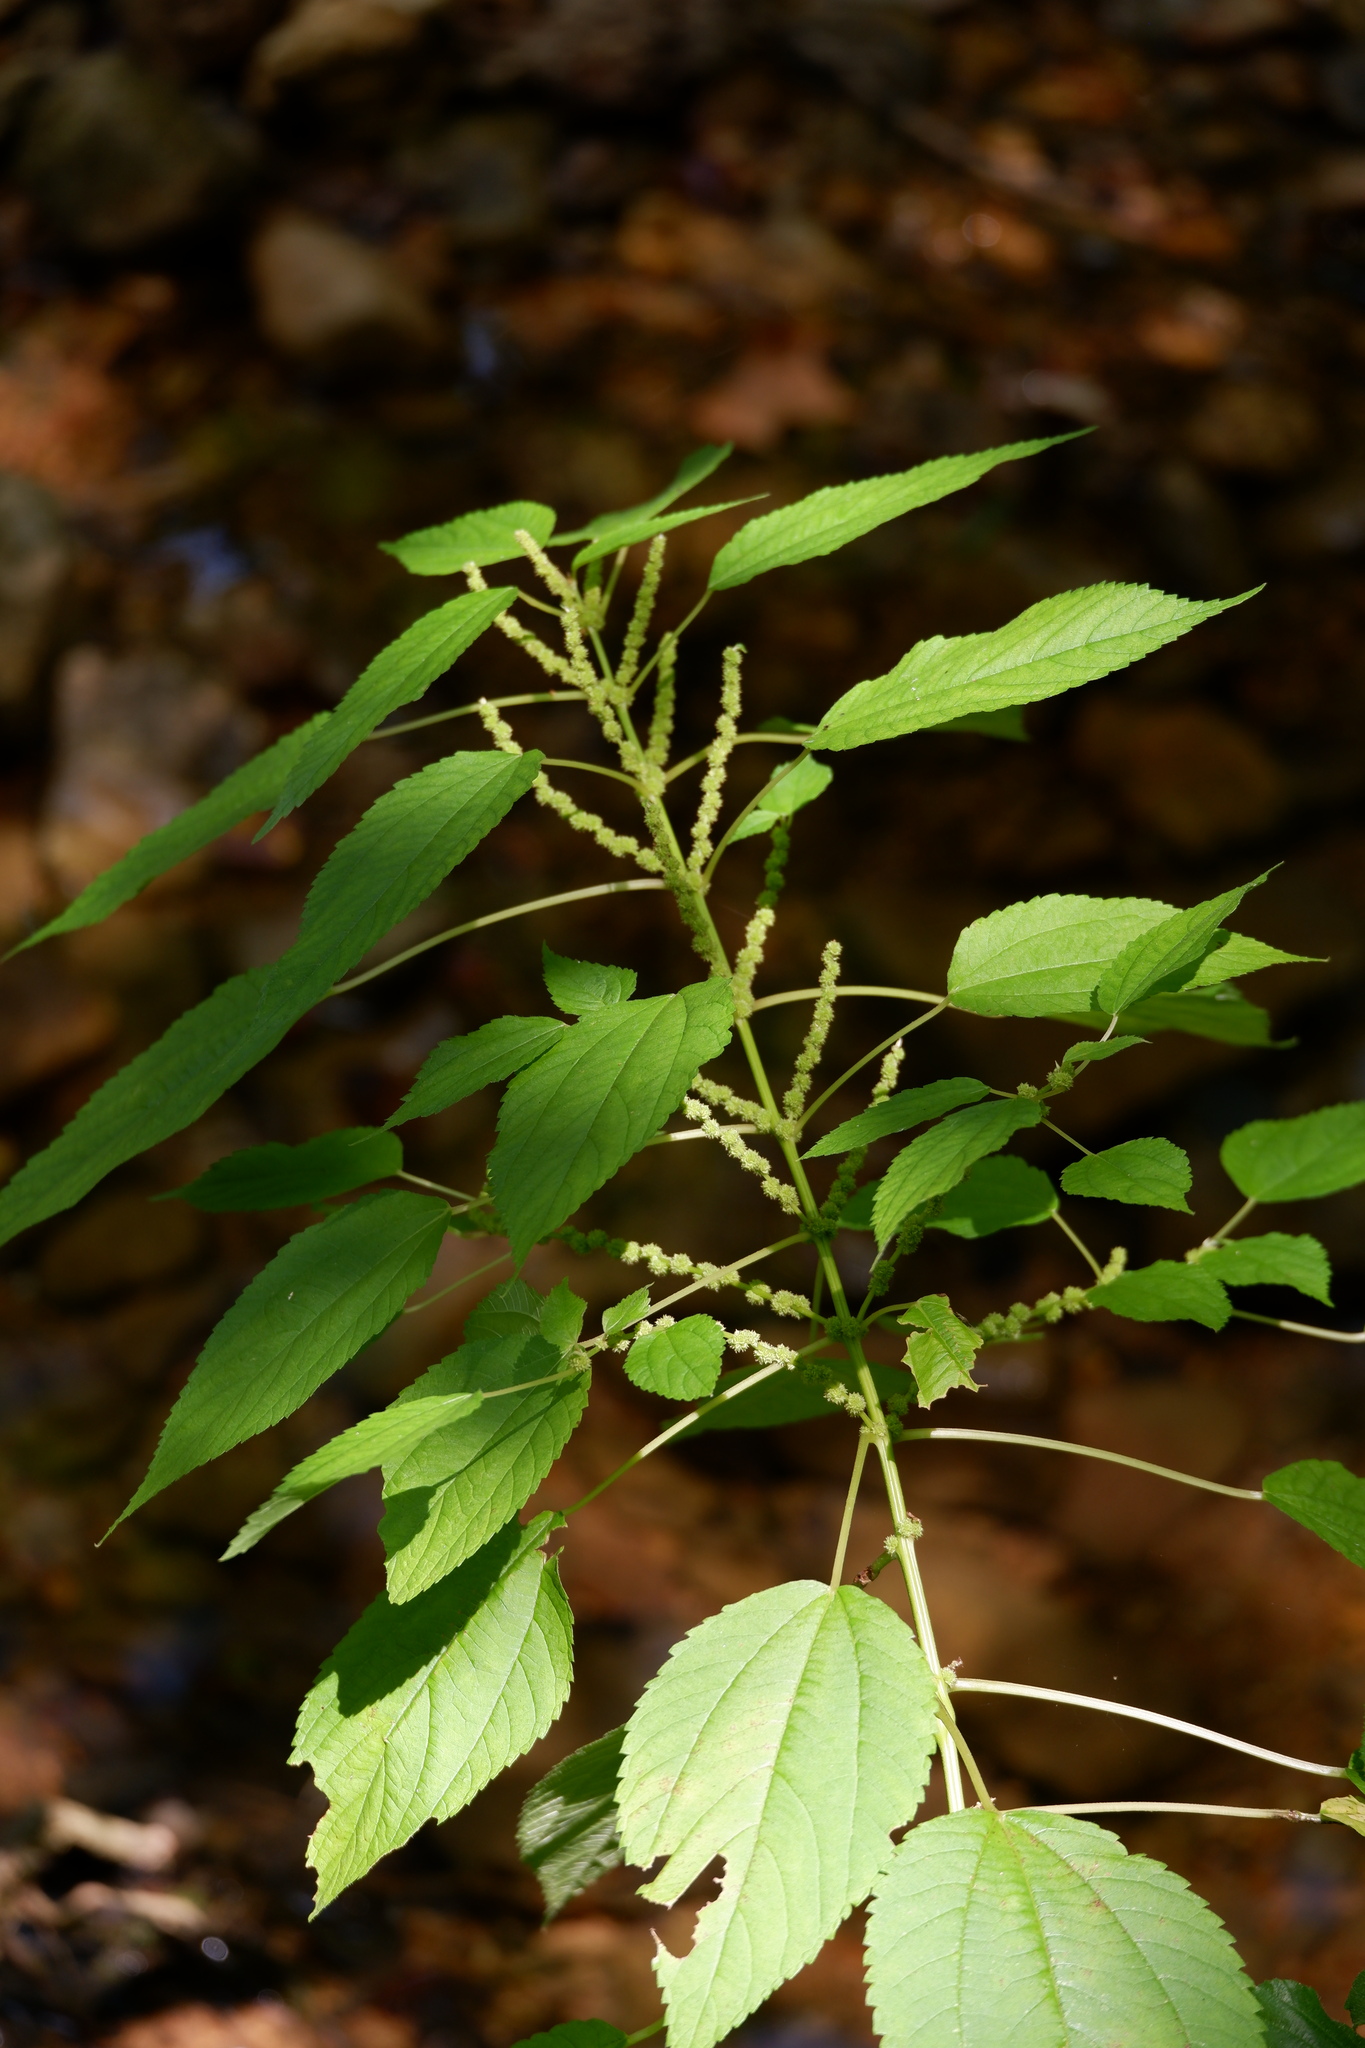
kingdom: Plantae
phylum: Tracheophyta
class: Magnoliopsida
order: Rosales
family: Urticaceae
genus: Boehmeria
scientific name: Boehmeria cylindrica
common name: Bog-hemp
